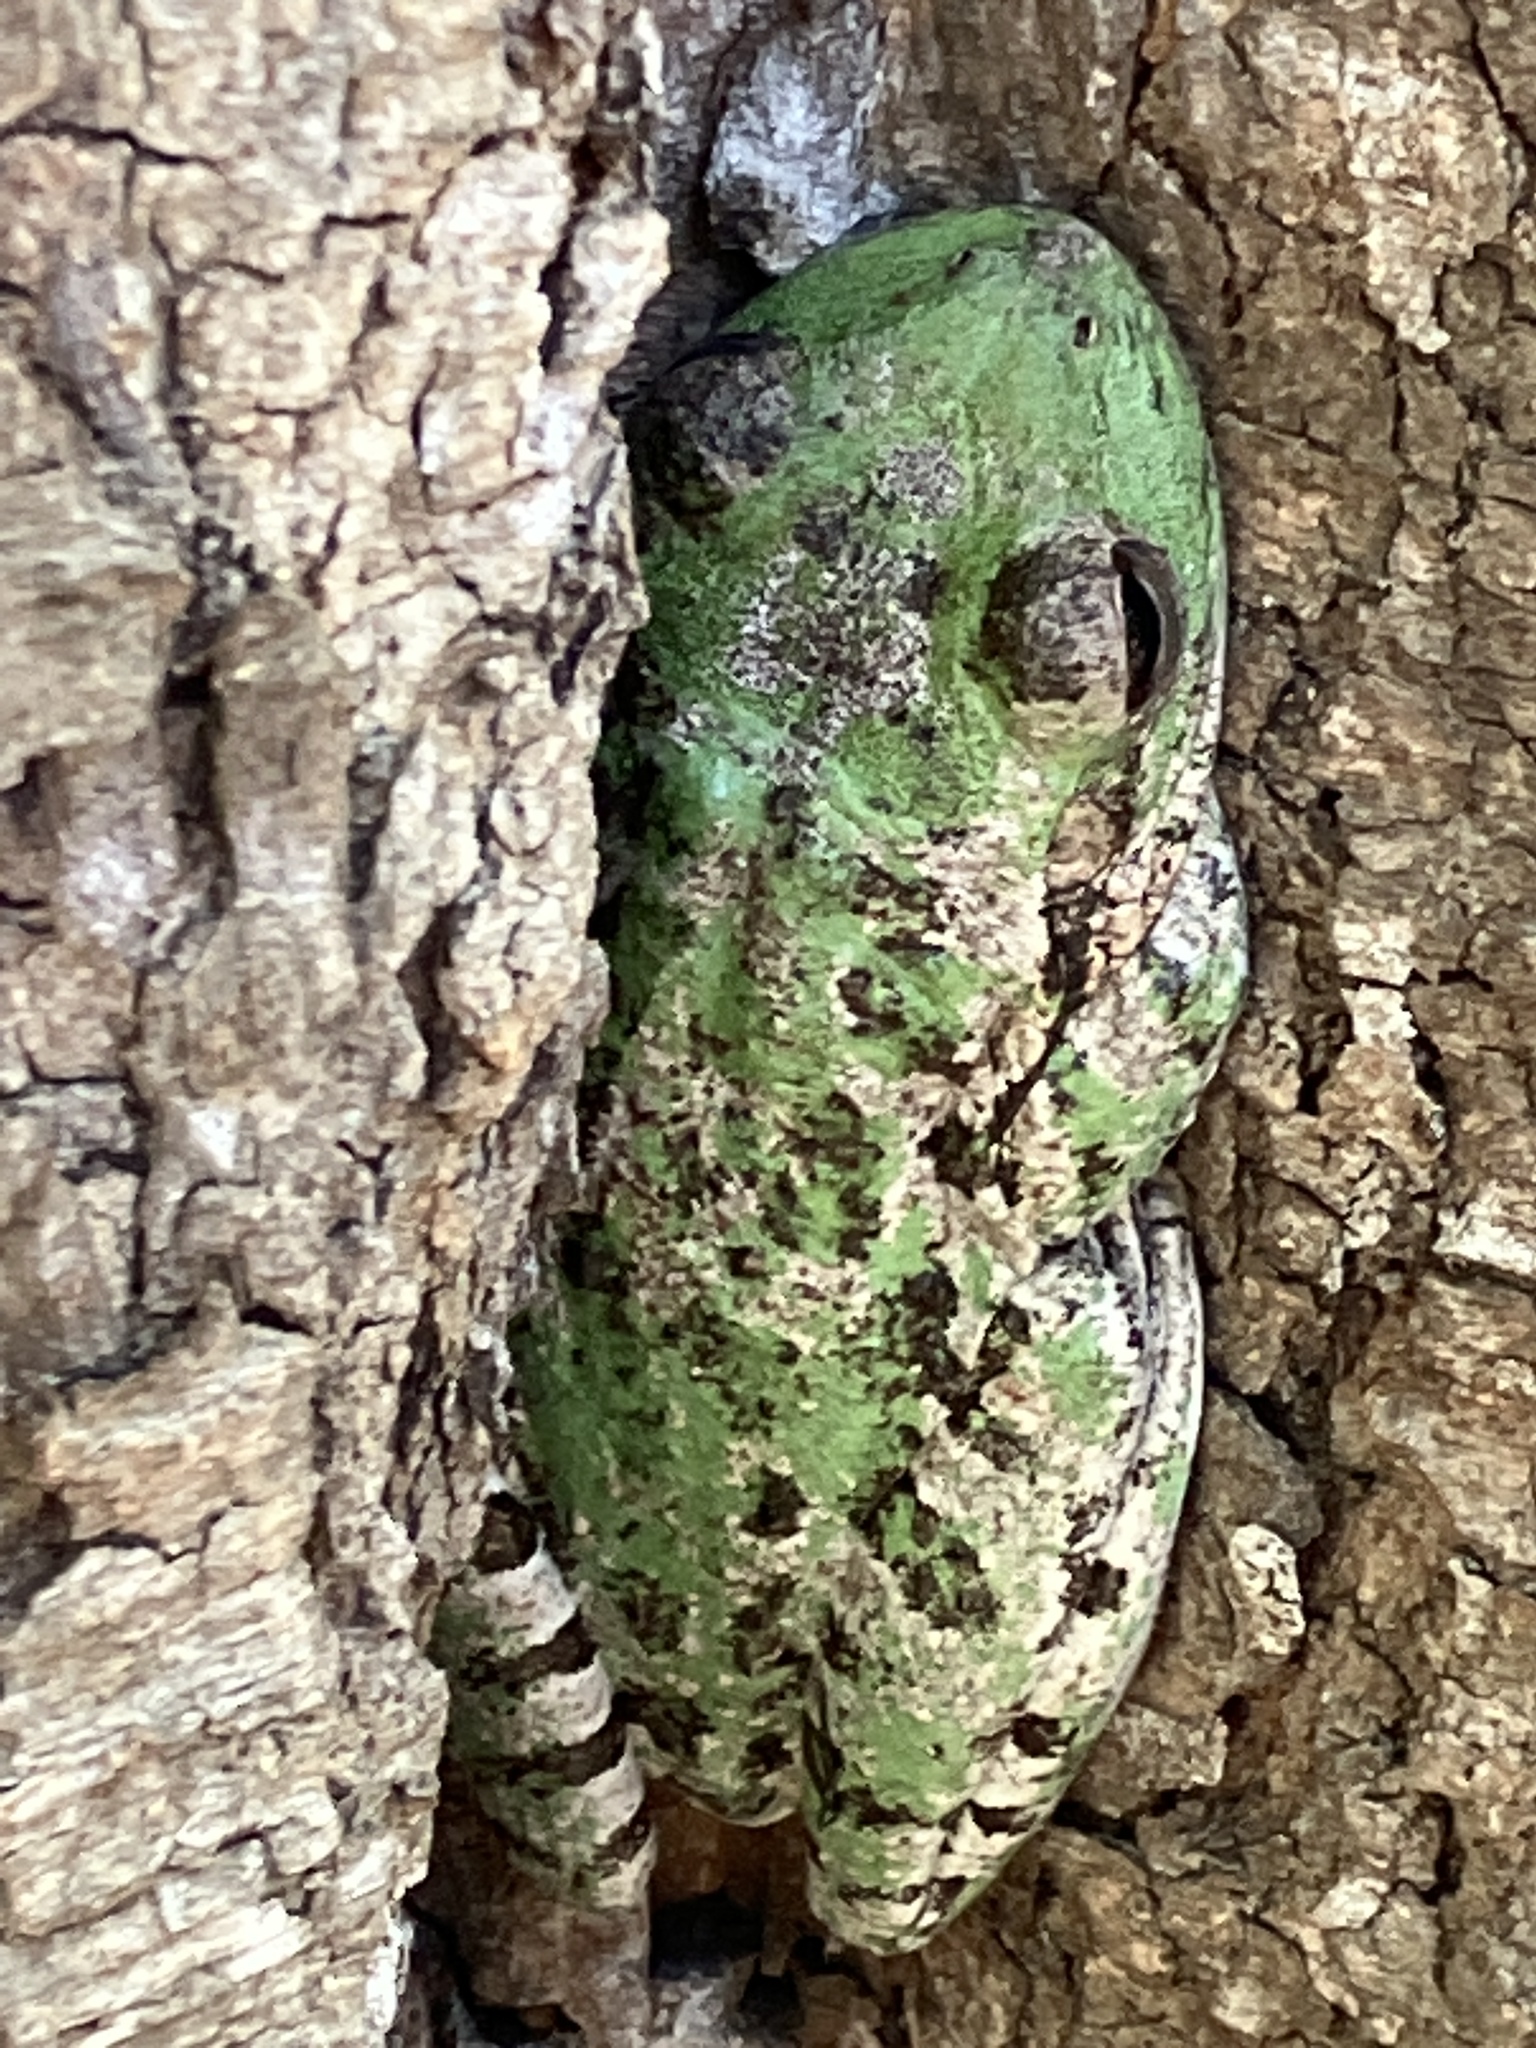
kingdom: Animalia
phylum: Chordata
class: Amphibia
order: Anura
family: Hylidae
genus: Osteopilus
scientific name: Osteopilus septentrionalis
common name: Cuban treefrog
